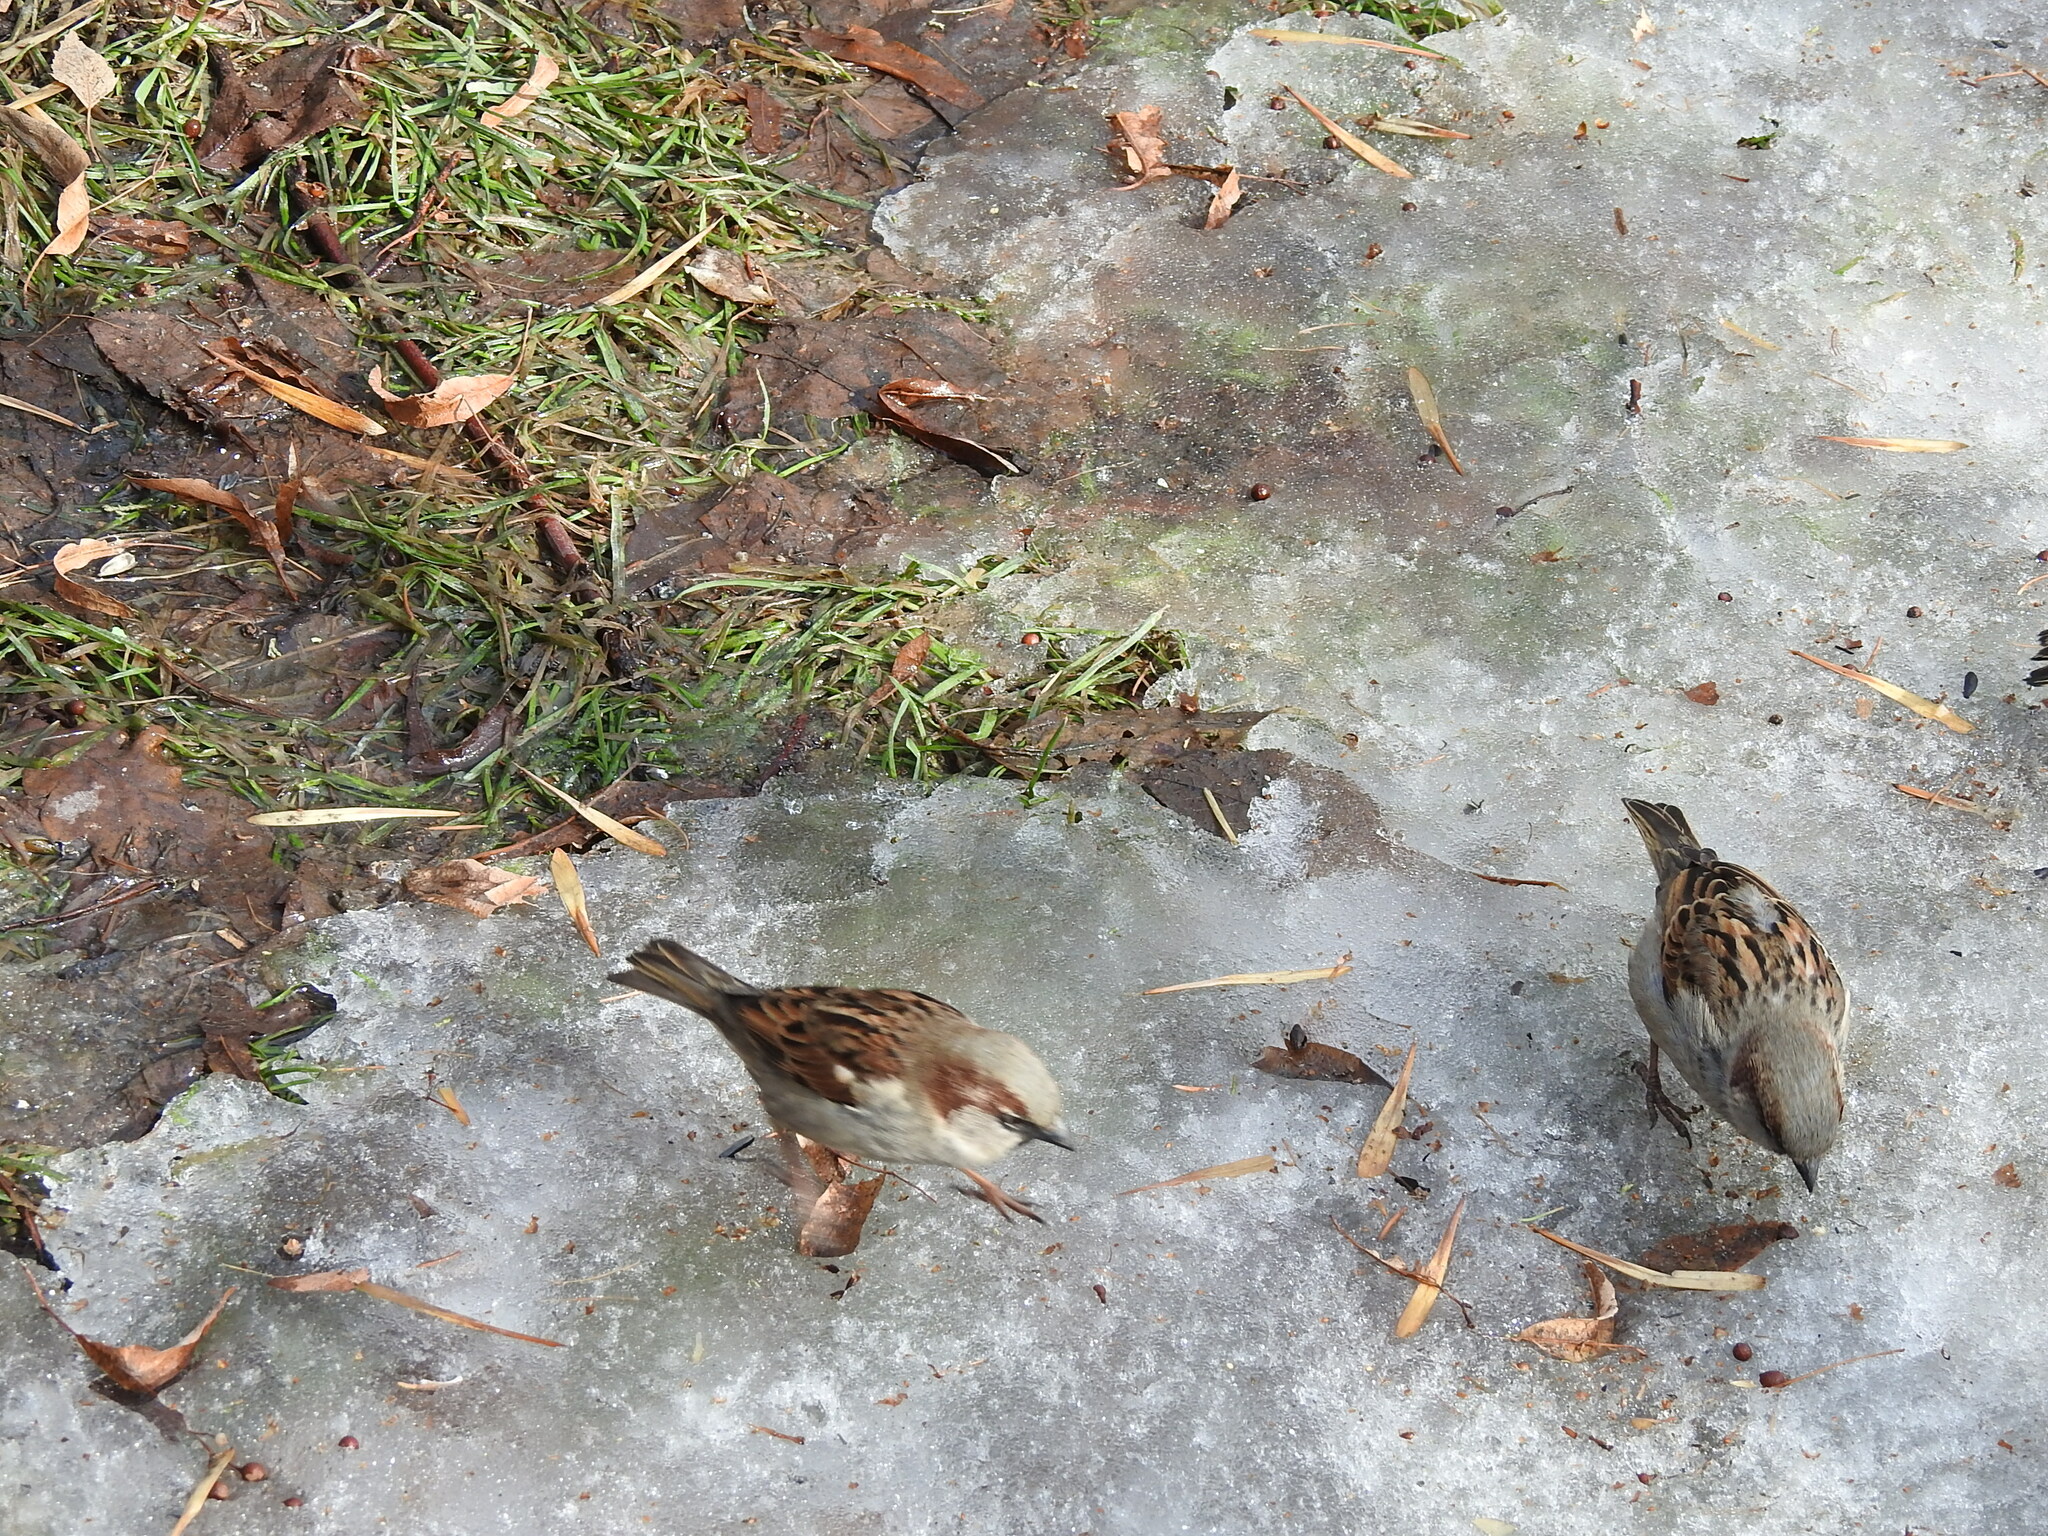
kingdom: Animalia
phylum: Chordata
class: Aves
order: Passeriformes
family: Passeridae
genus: Passer
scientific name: Passer domesticus
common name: House sparrow
